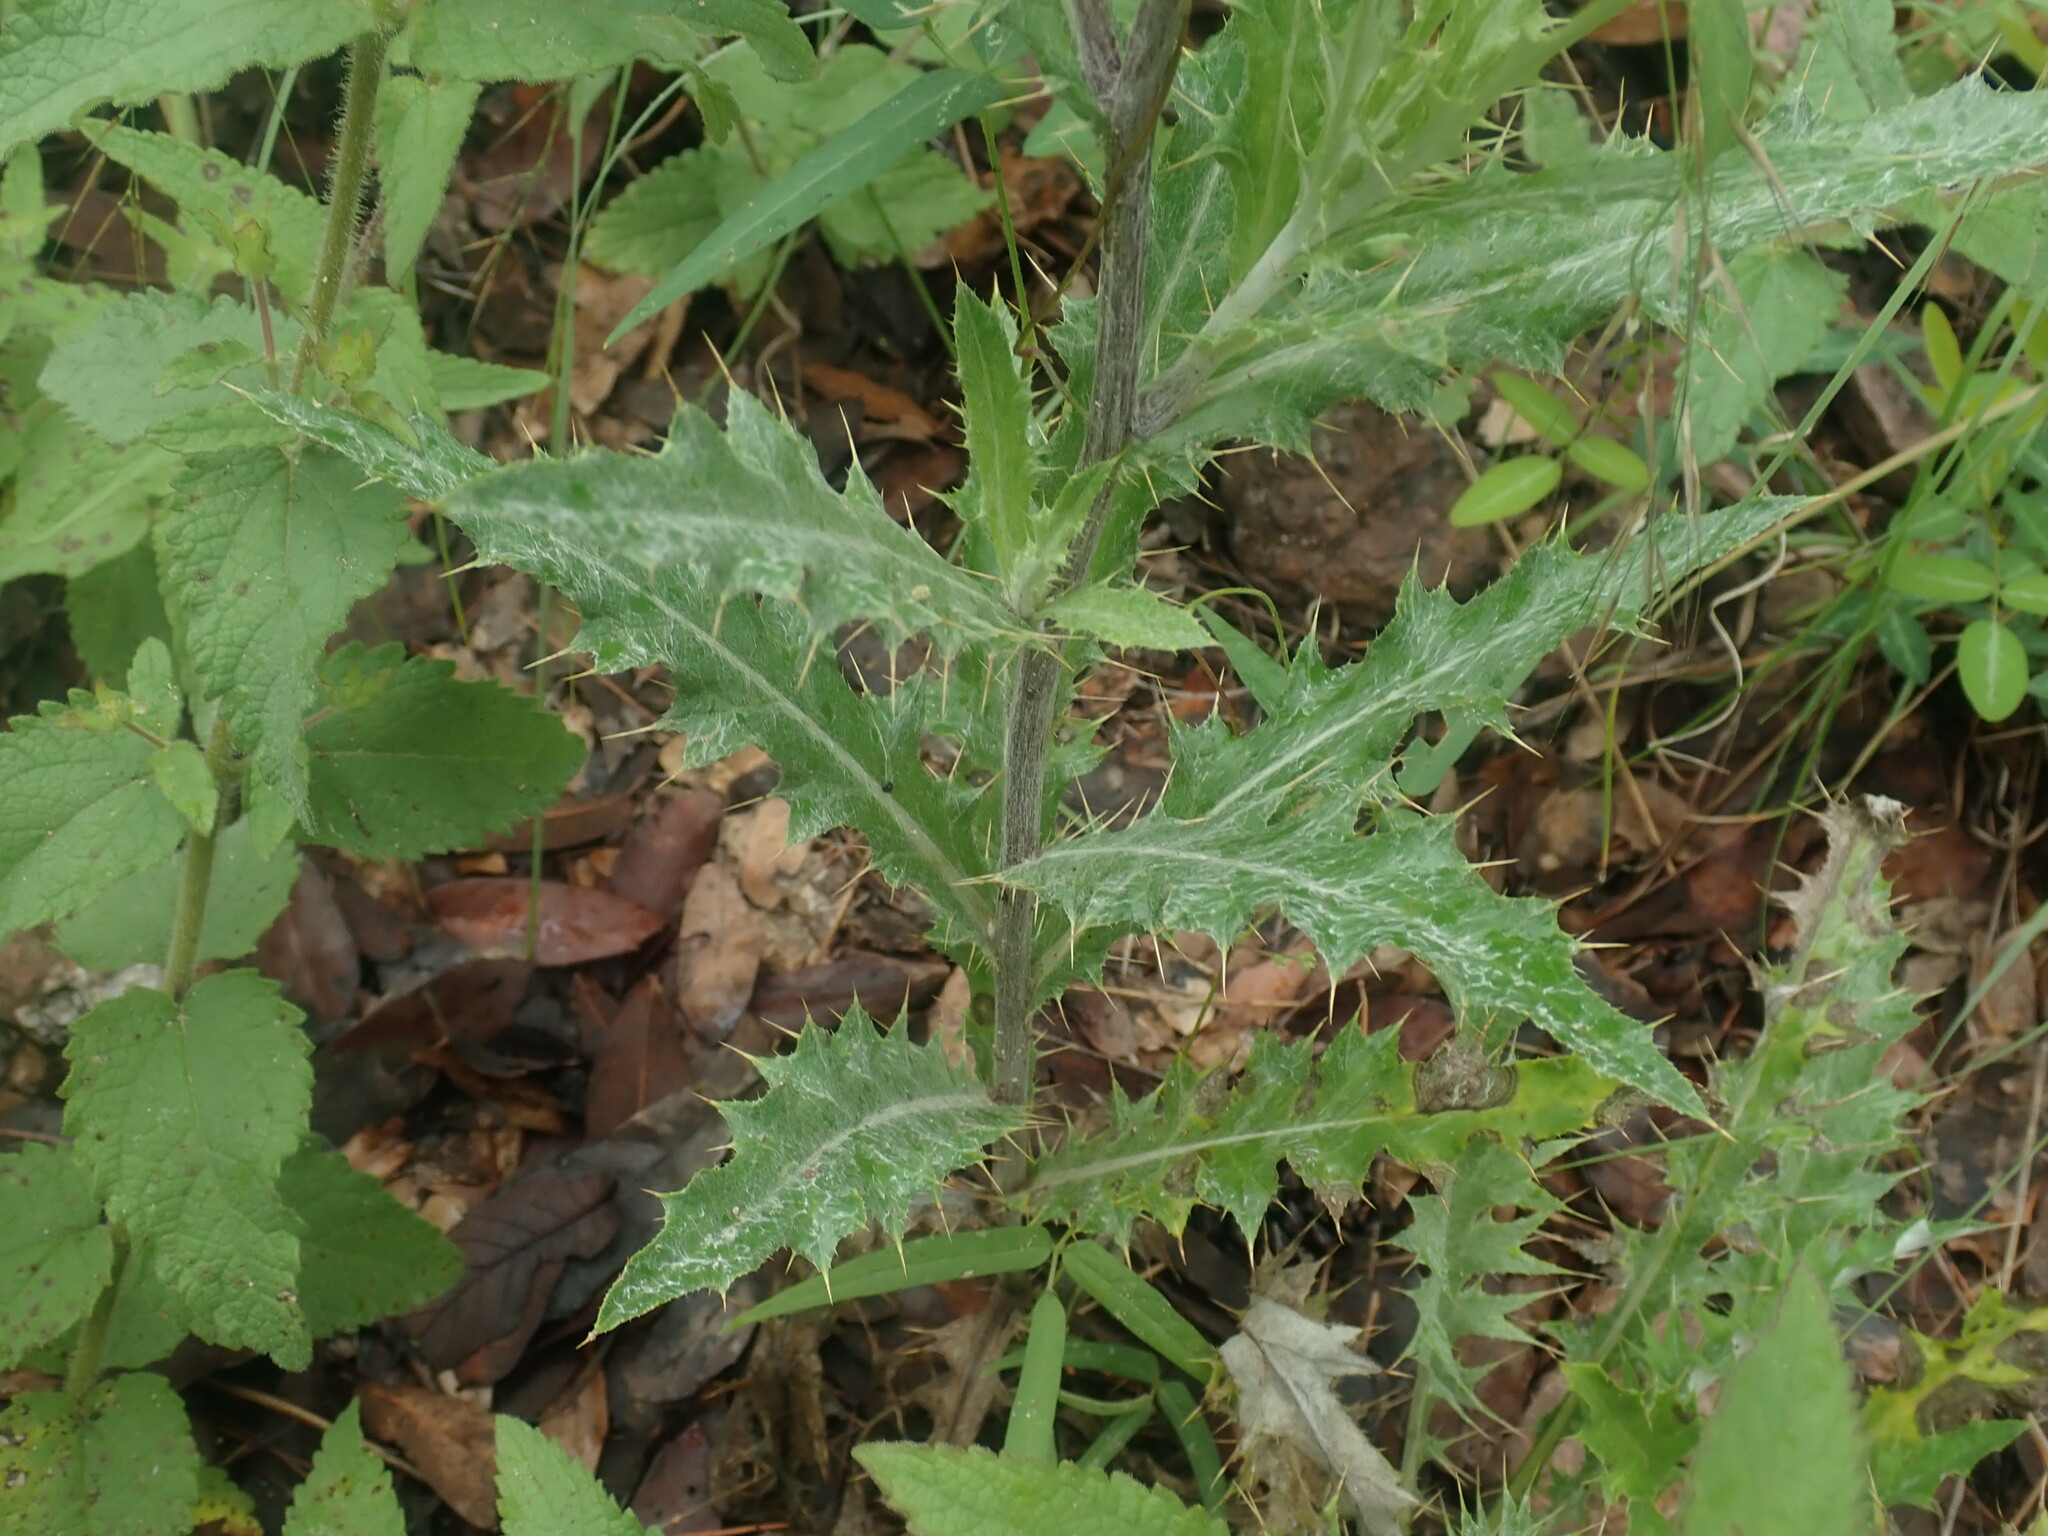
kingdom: Plantae
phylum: Tracheophyta
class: Magnoliopsida
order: Asterales
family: Asteraceae
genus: Cirsium
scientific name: Cirsium wheeleri
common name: Wheeler's thistle
